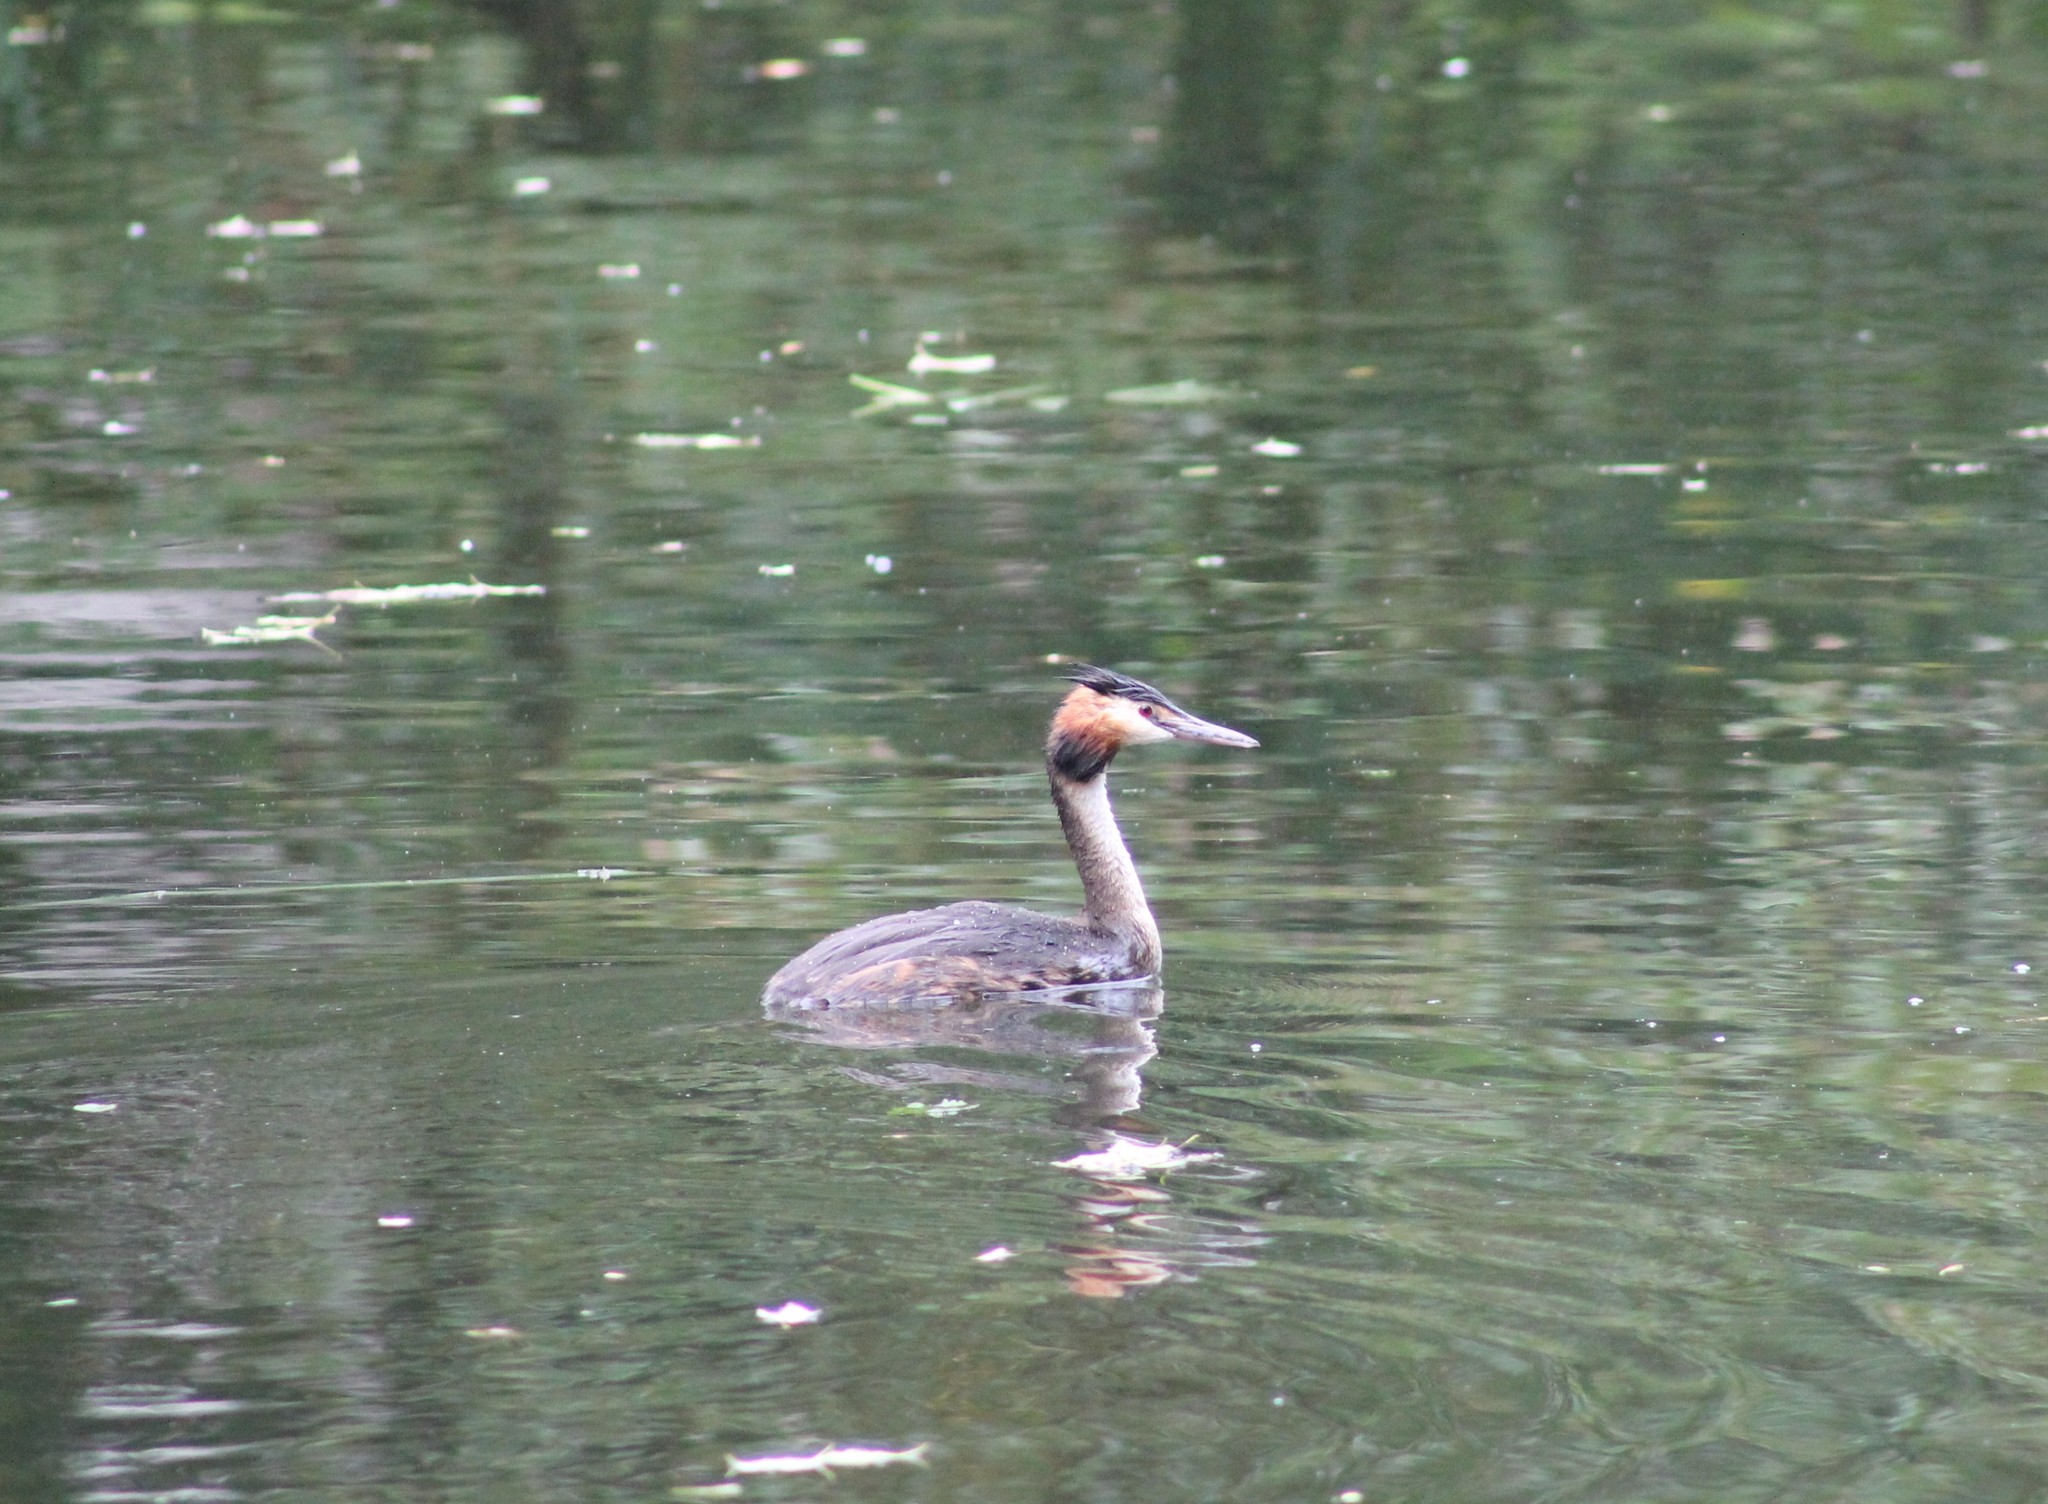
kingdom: Animalia
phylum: Chordata
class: Aves
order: Podicipediformes
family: Podicipedidae
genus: Podiceps
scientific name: Podiceps cristatus
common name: Great crested grebe
